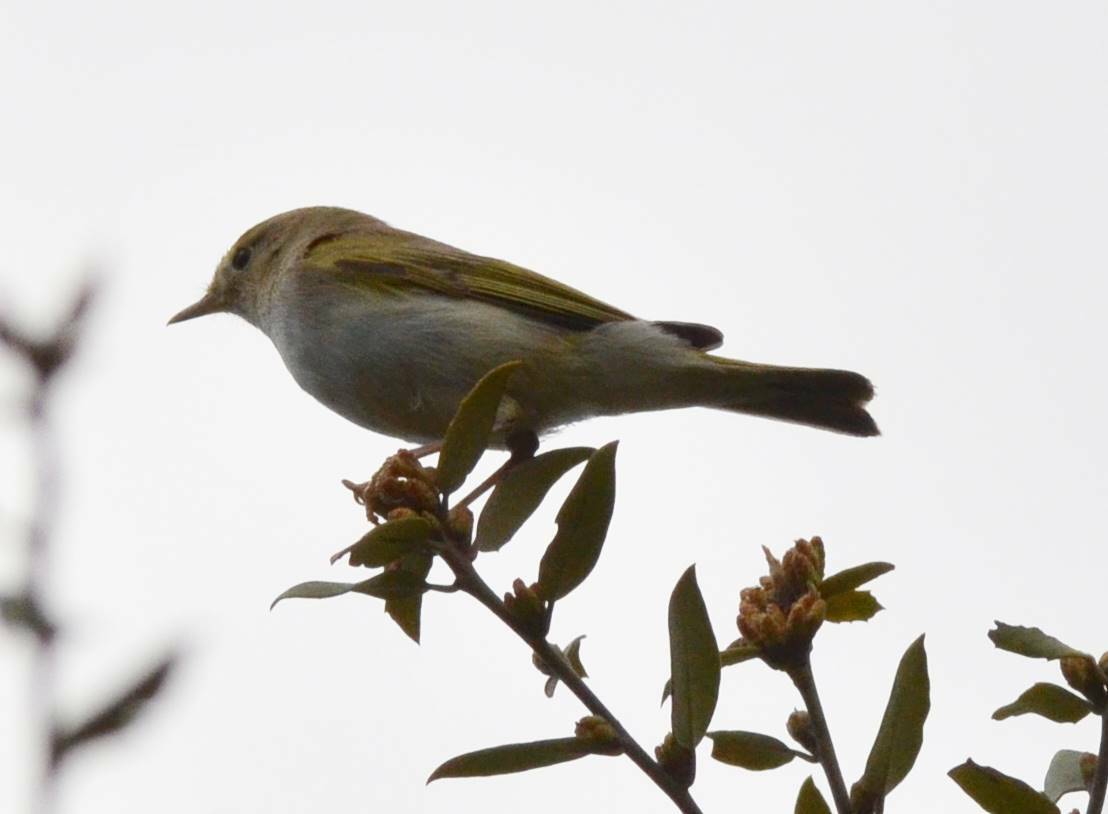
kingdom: Animalia
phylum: Chordata
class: Aves
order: Passeriformes
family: Phylloscopidae
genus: Phylloscopus
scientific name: Phylloscopus bonelli
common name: Western bonelli's warbler
